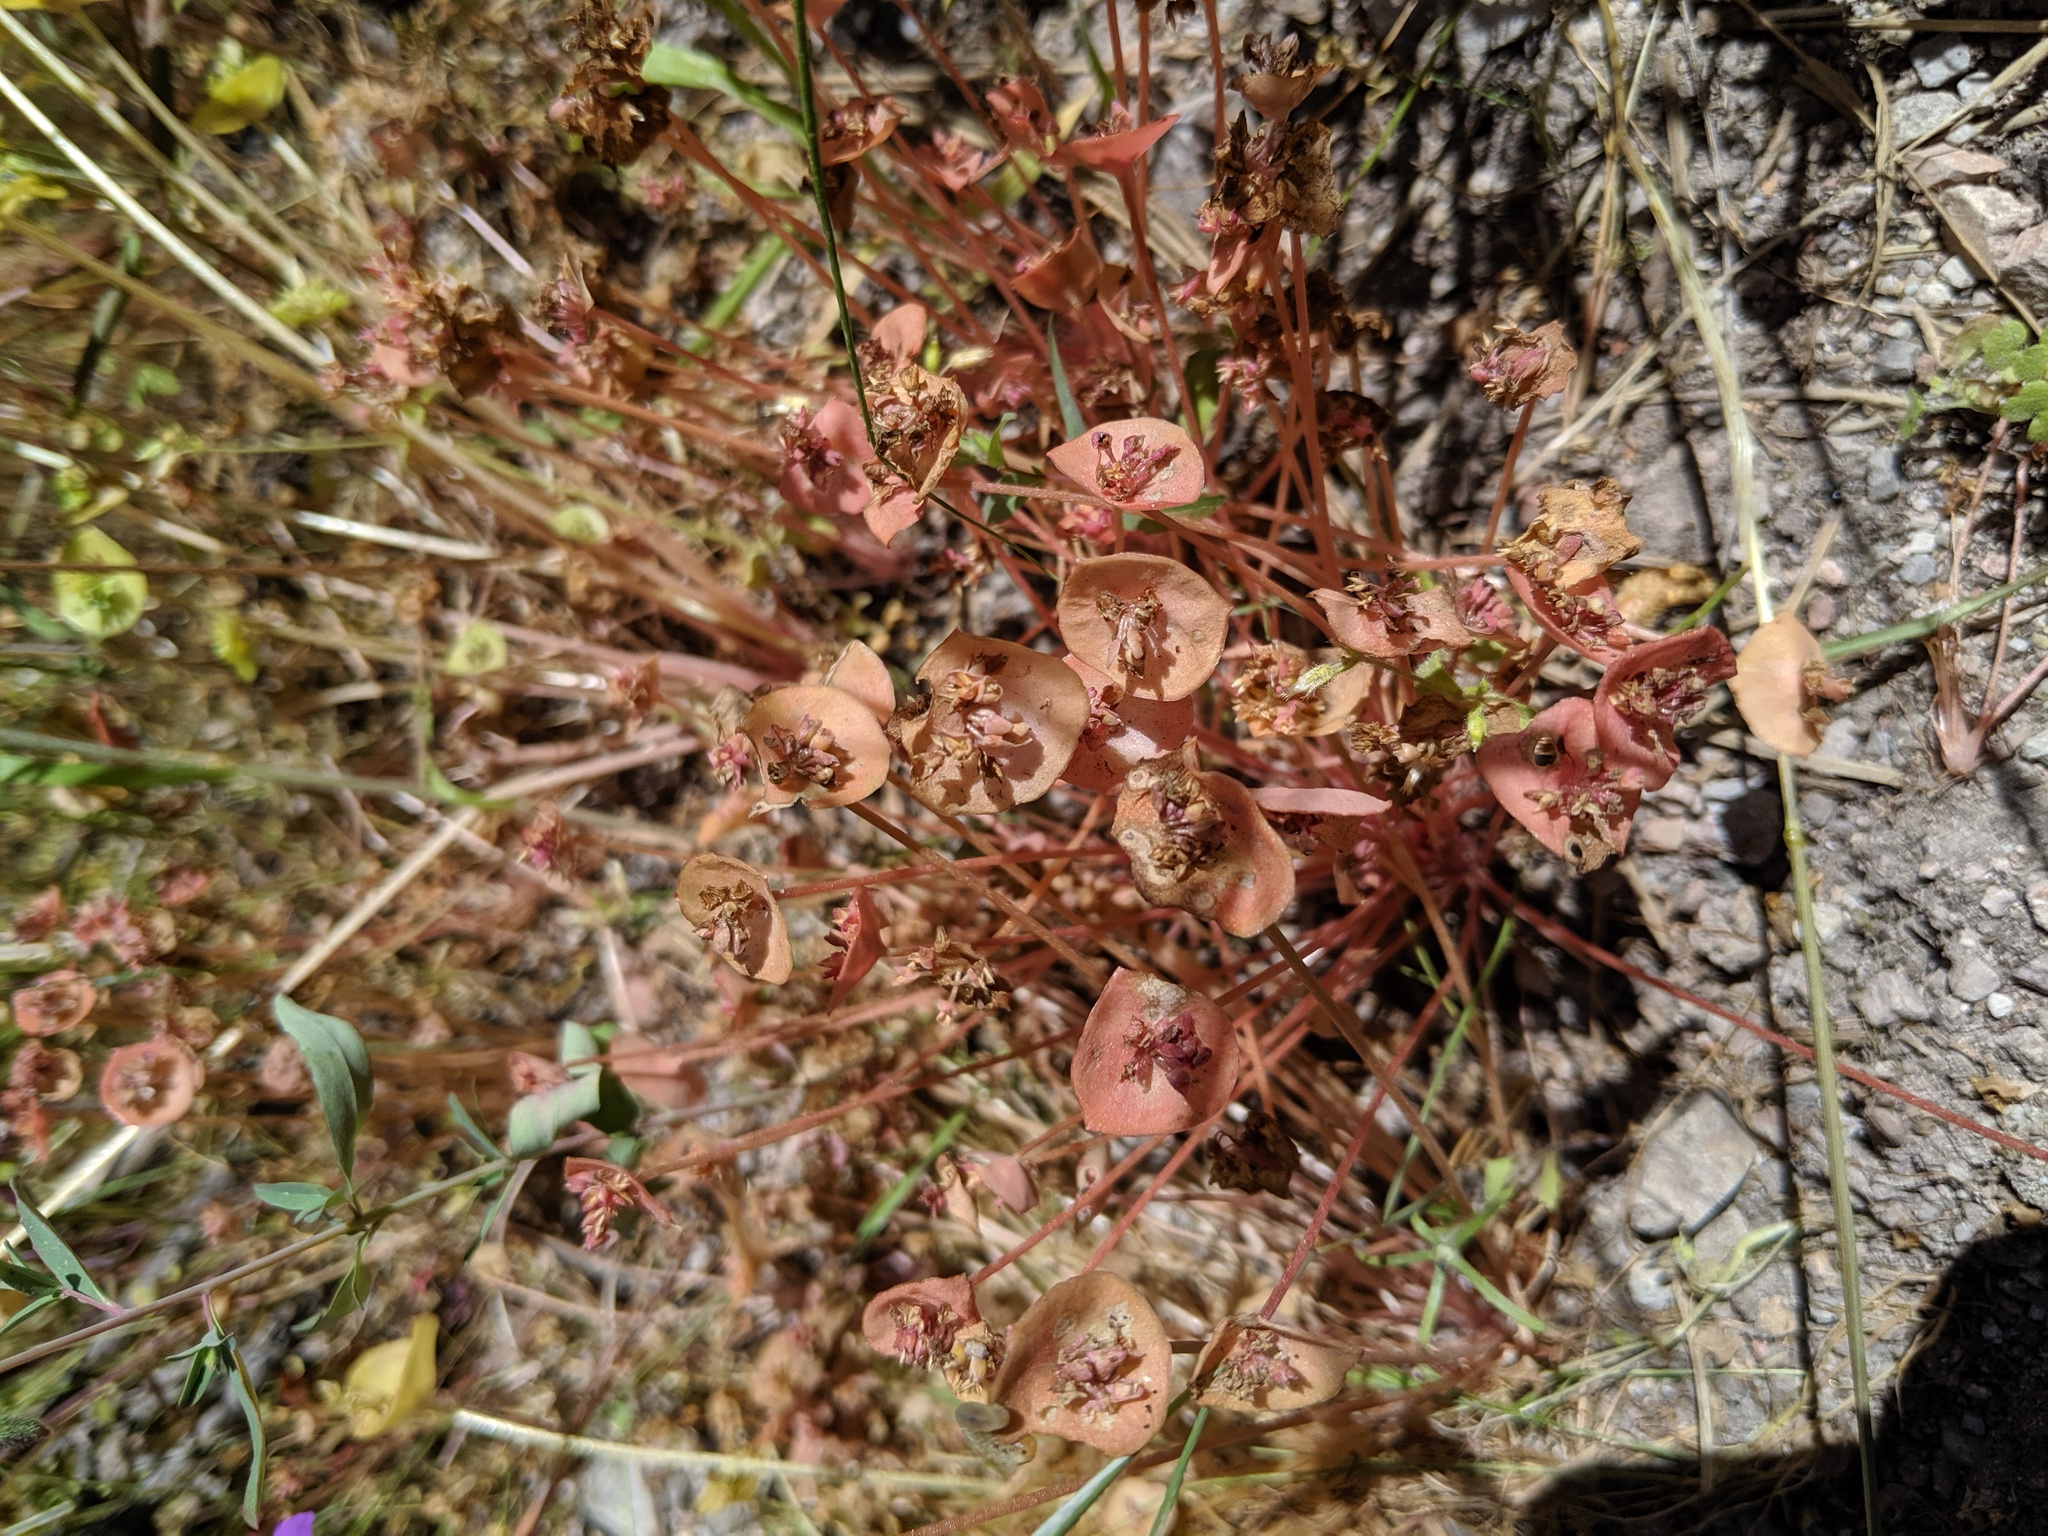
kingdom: Plantae
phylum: Tracheophyta
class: Magnoliopsida
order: Caryophyllales
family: Montiaceae
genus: Claytonia
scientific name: Claytonia perfoliata
